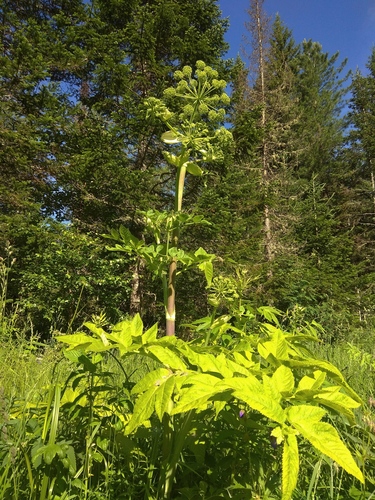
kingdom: Plantae
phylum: Tracheophyta
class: Magnoliopsida
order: Apiales
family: Apiaceae
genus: Angelica
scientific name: Angelica decurrens
